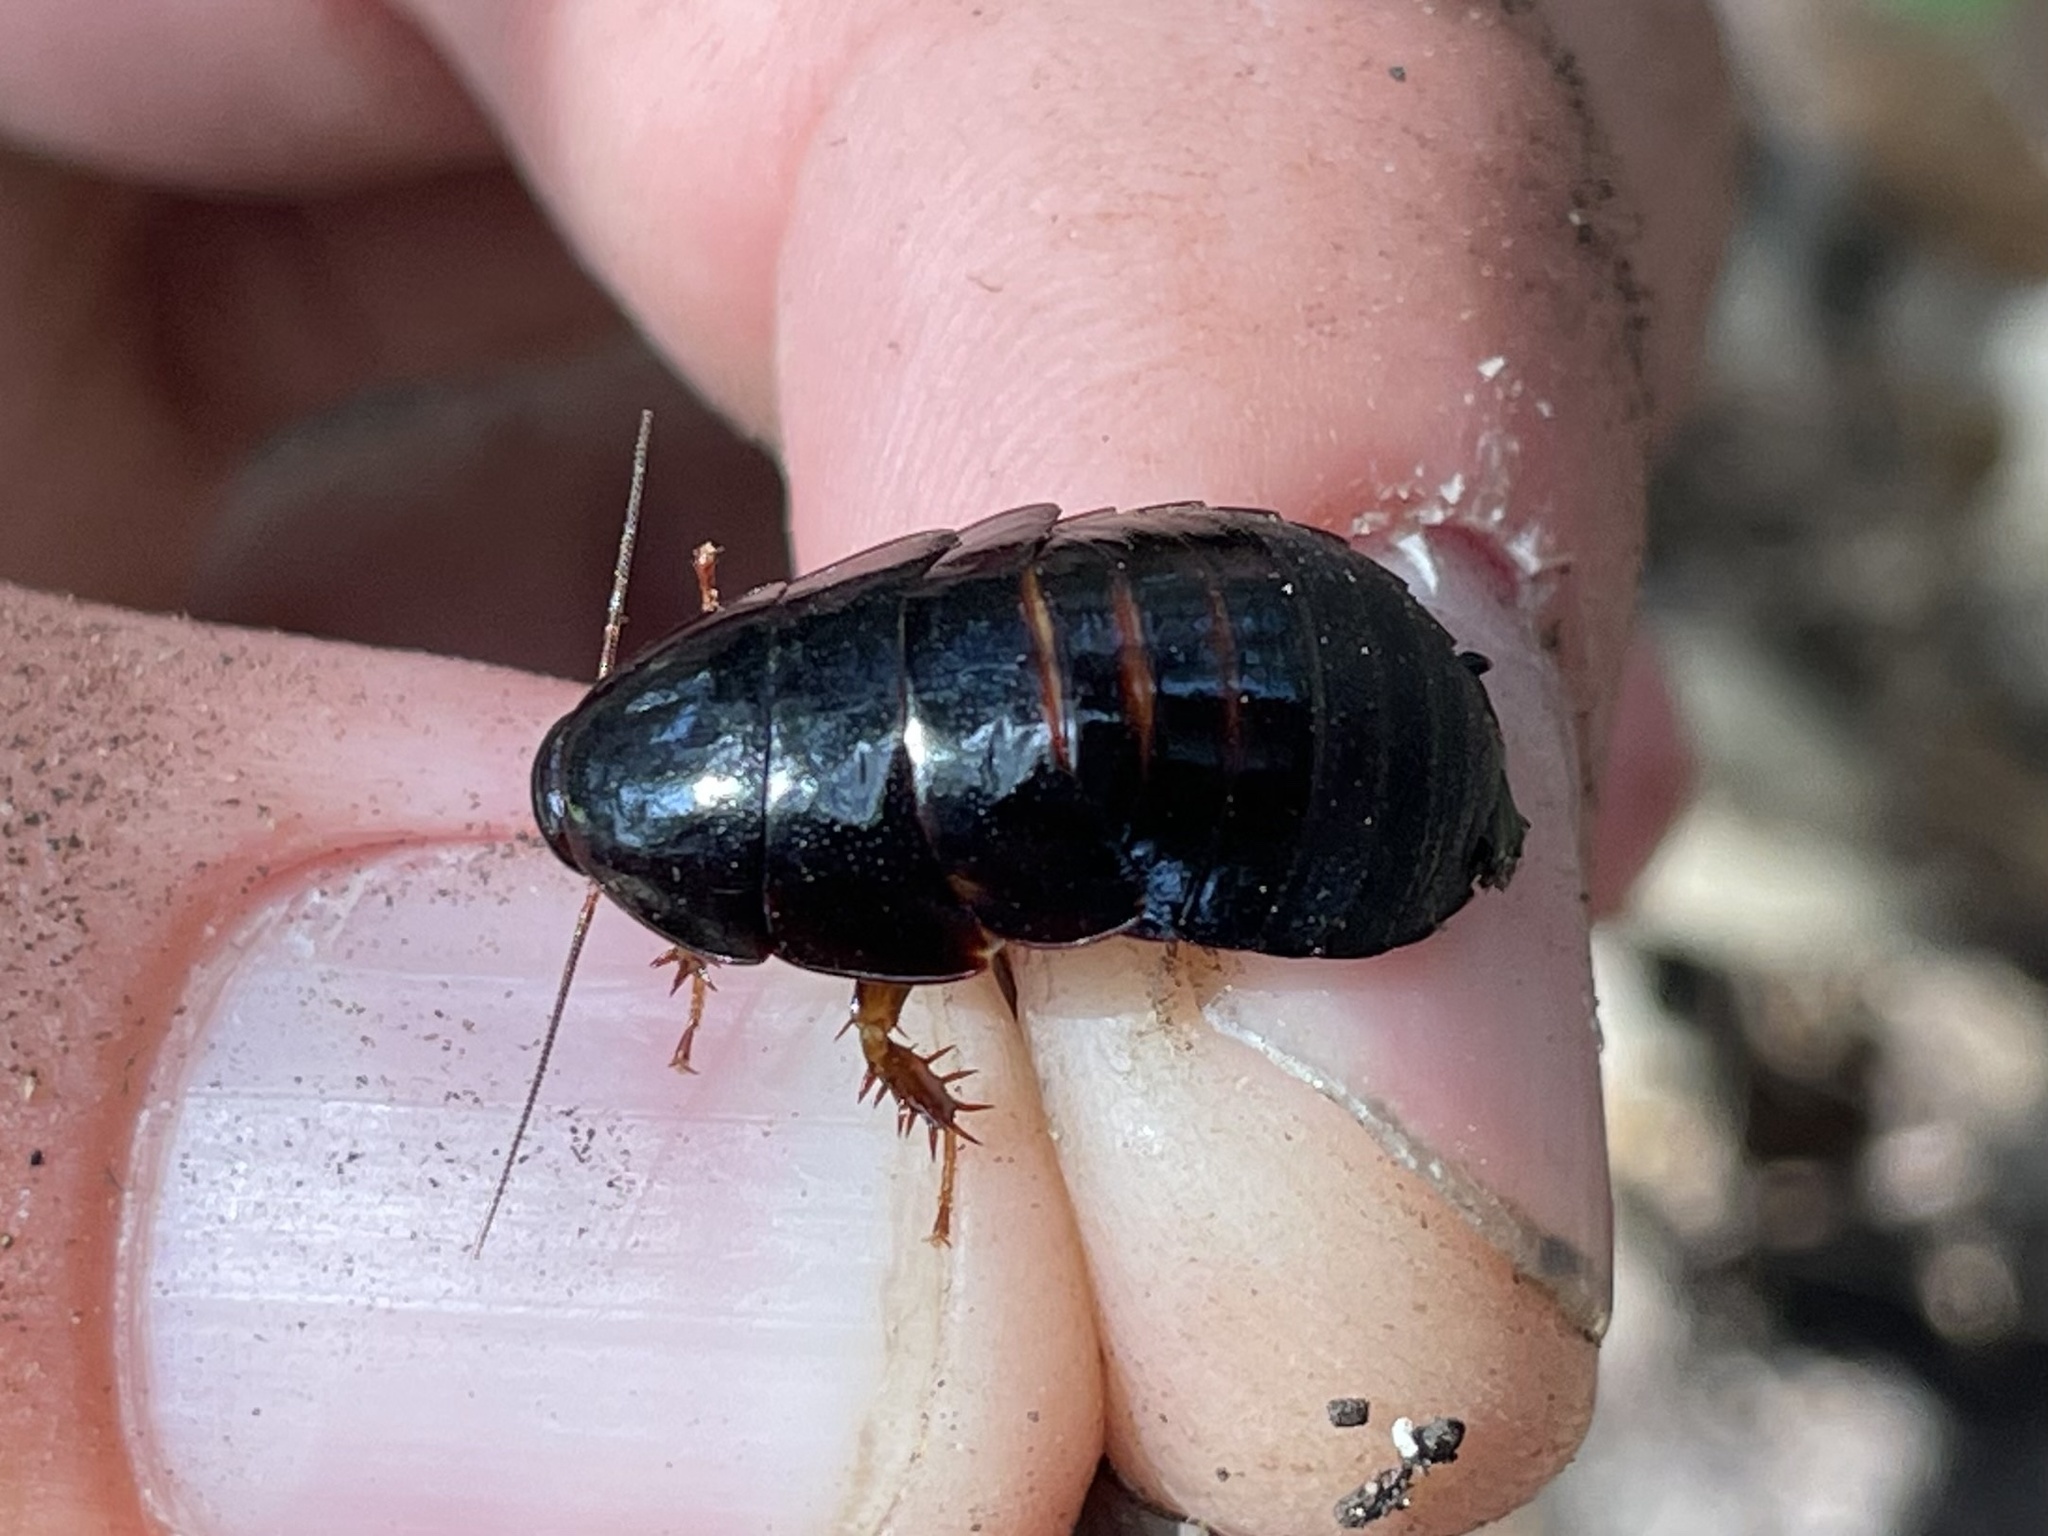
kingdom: Animalia
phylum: Arthropoda
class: Insecta
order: Blattodea
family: Blaberidae
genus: Pycnoscelus
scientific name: Pycnoscelus surinamensis
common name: Surinam cockroach
